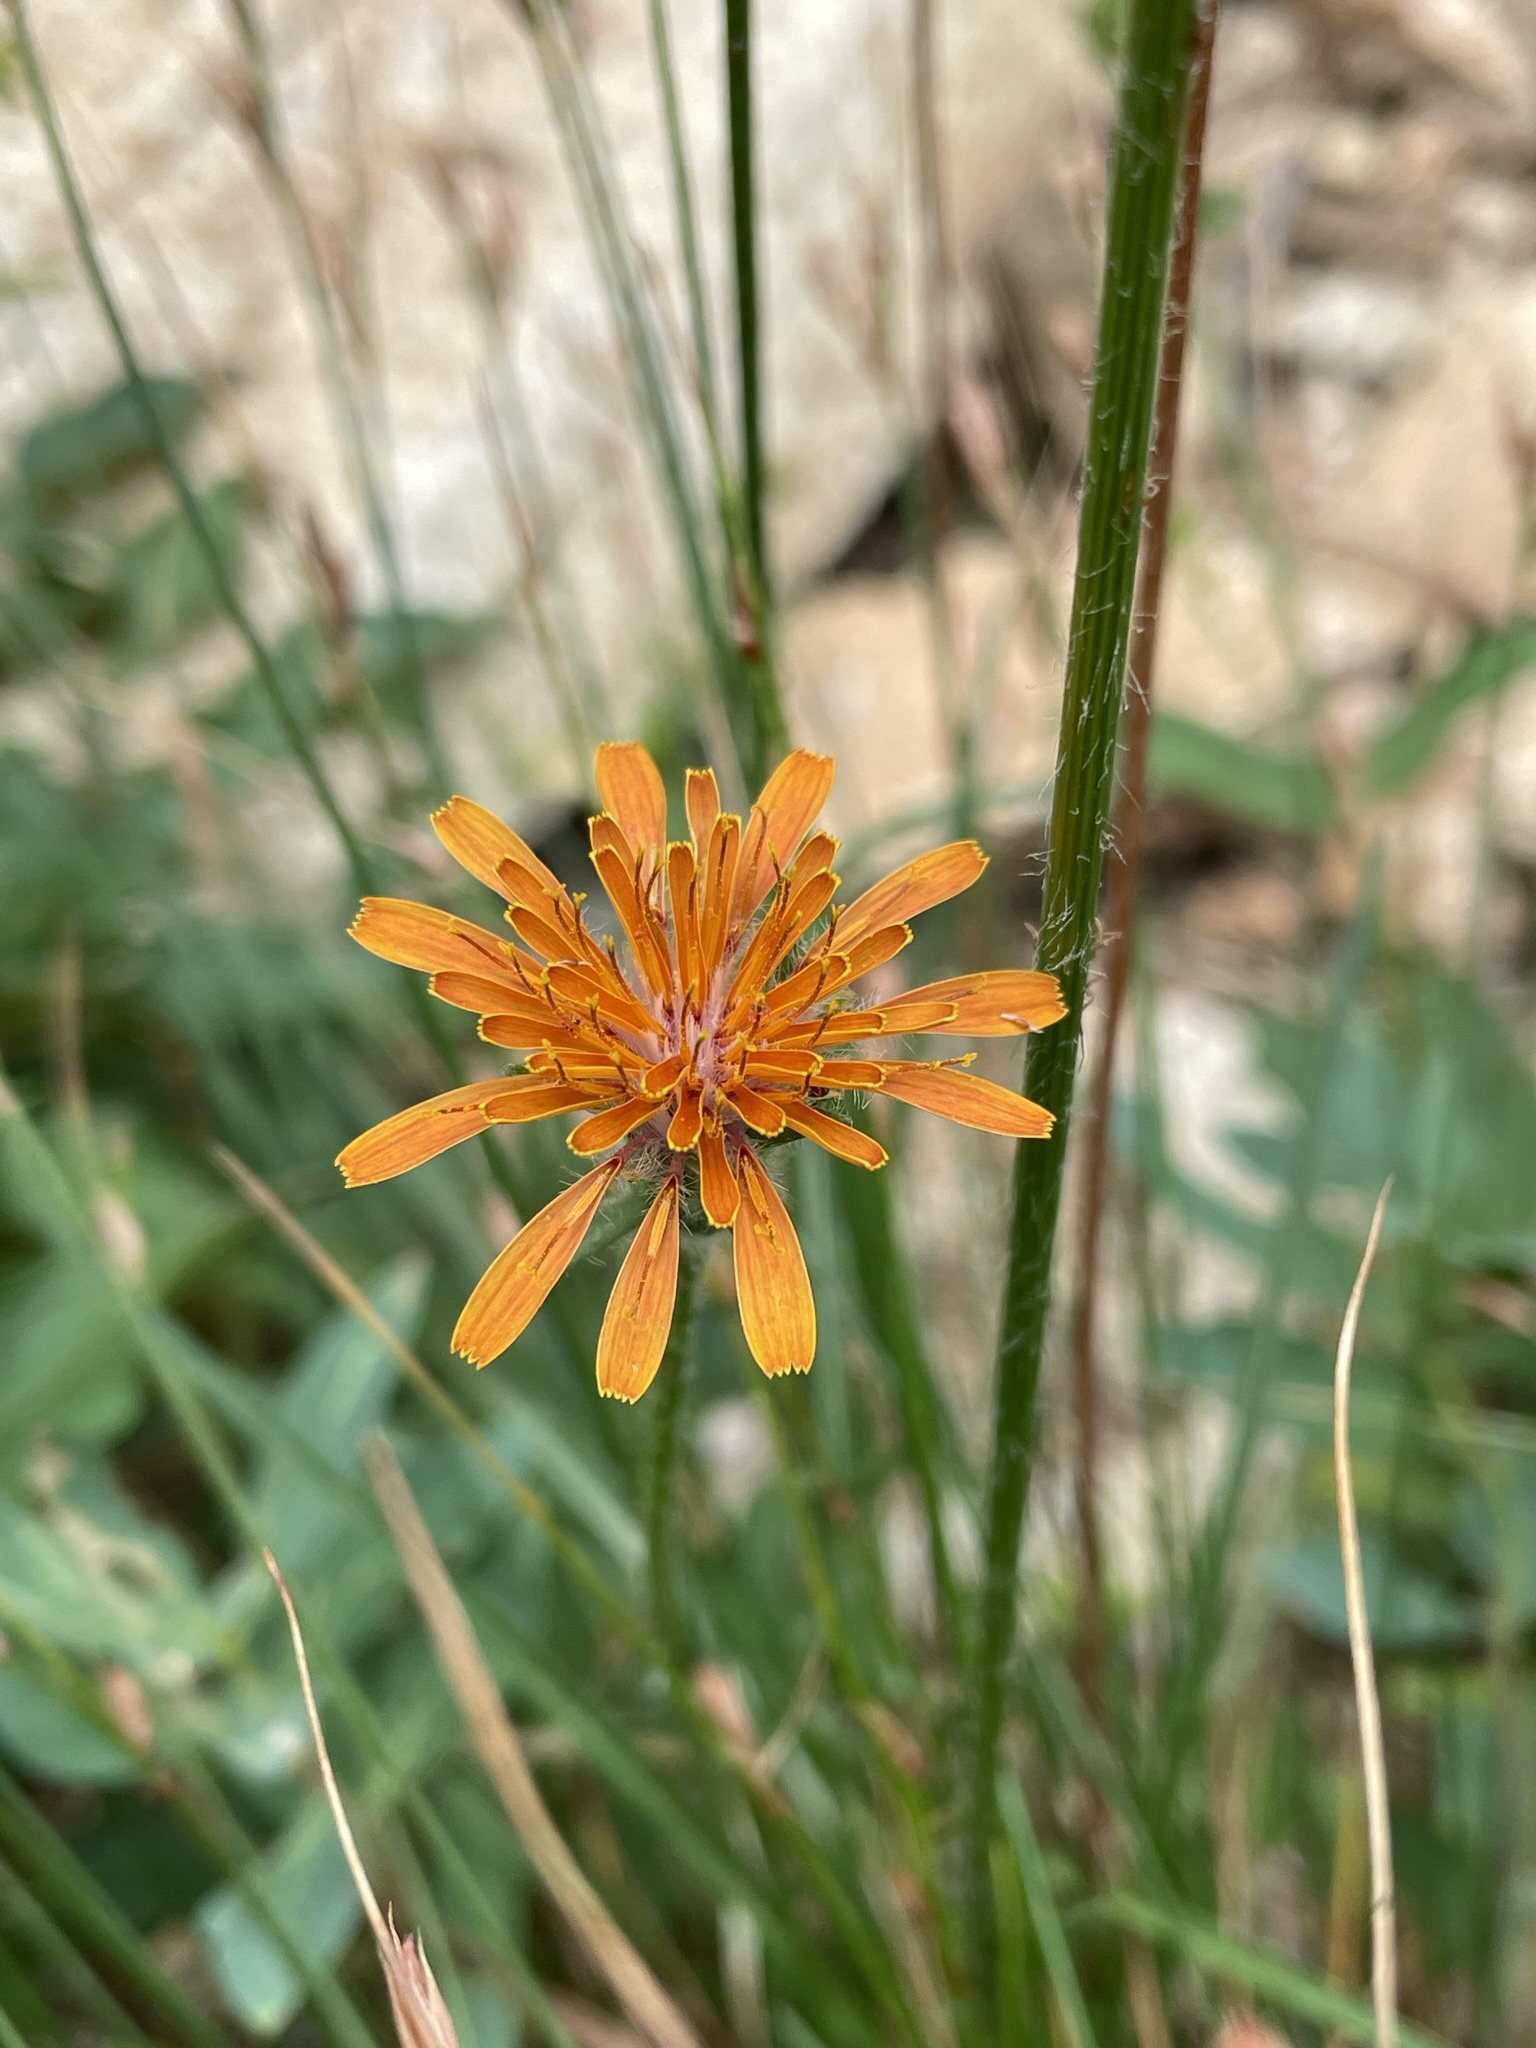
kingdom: Plantae
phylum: Tracheophyta
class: Magnoliopsida
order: Asterales
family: Asteraceae
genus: Agoseris
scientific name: Agoseris aurantiaca
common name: Mountain agoseris
